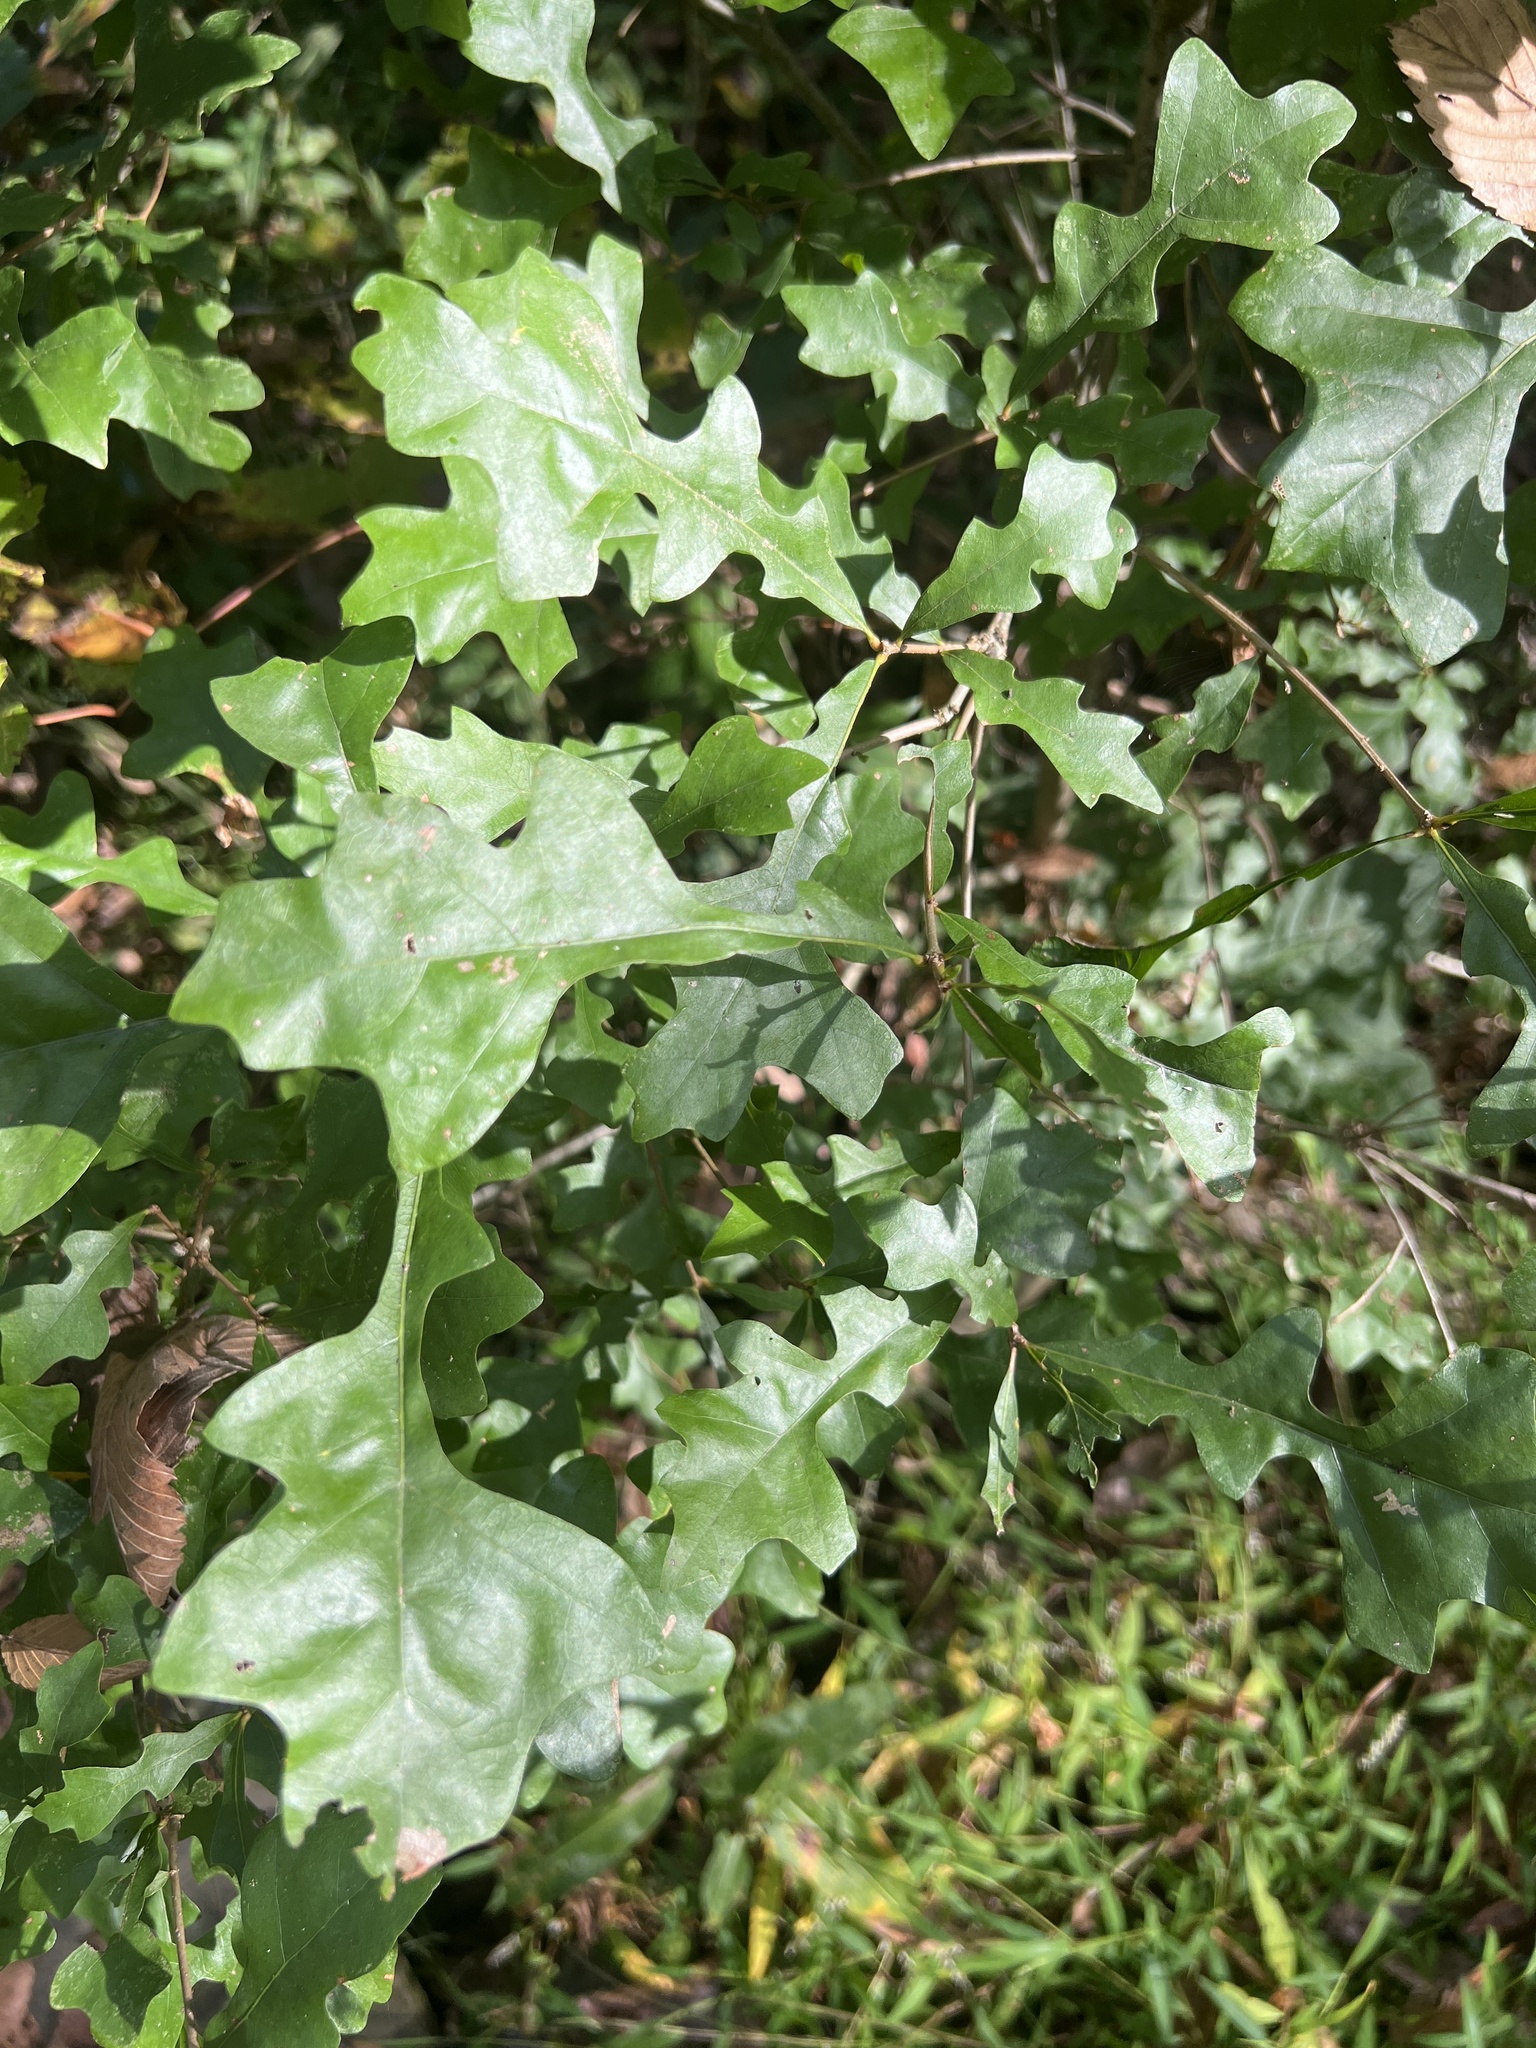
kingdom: Plantae
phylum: Tracheophyta
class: Magnoliopsida
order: Fagales
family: Fagaceae
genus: Quercus
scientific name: Quercus lyrata
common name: Overcup oak
